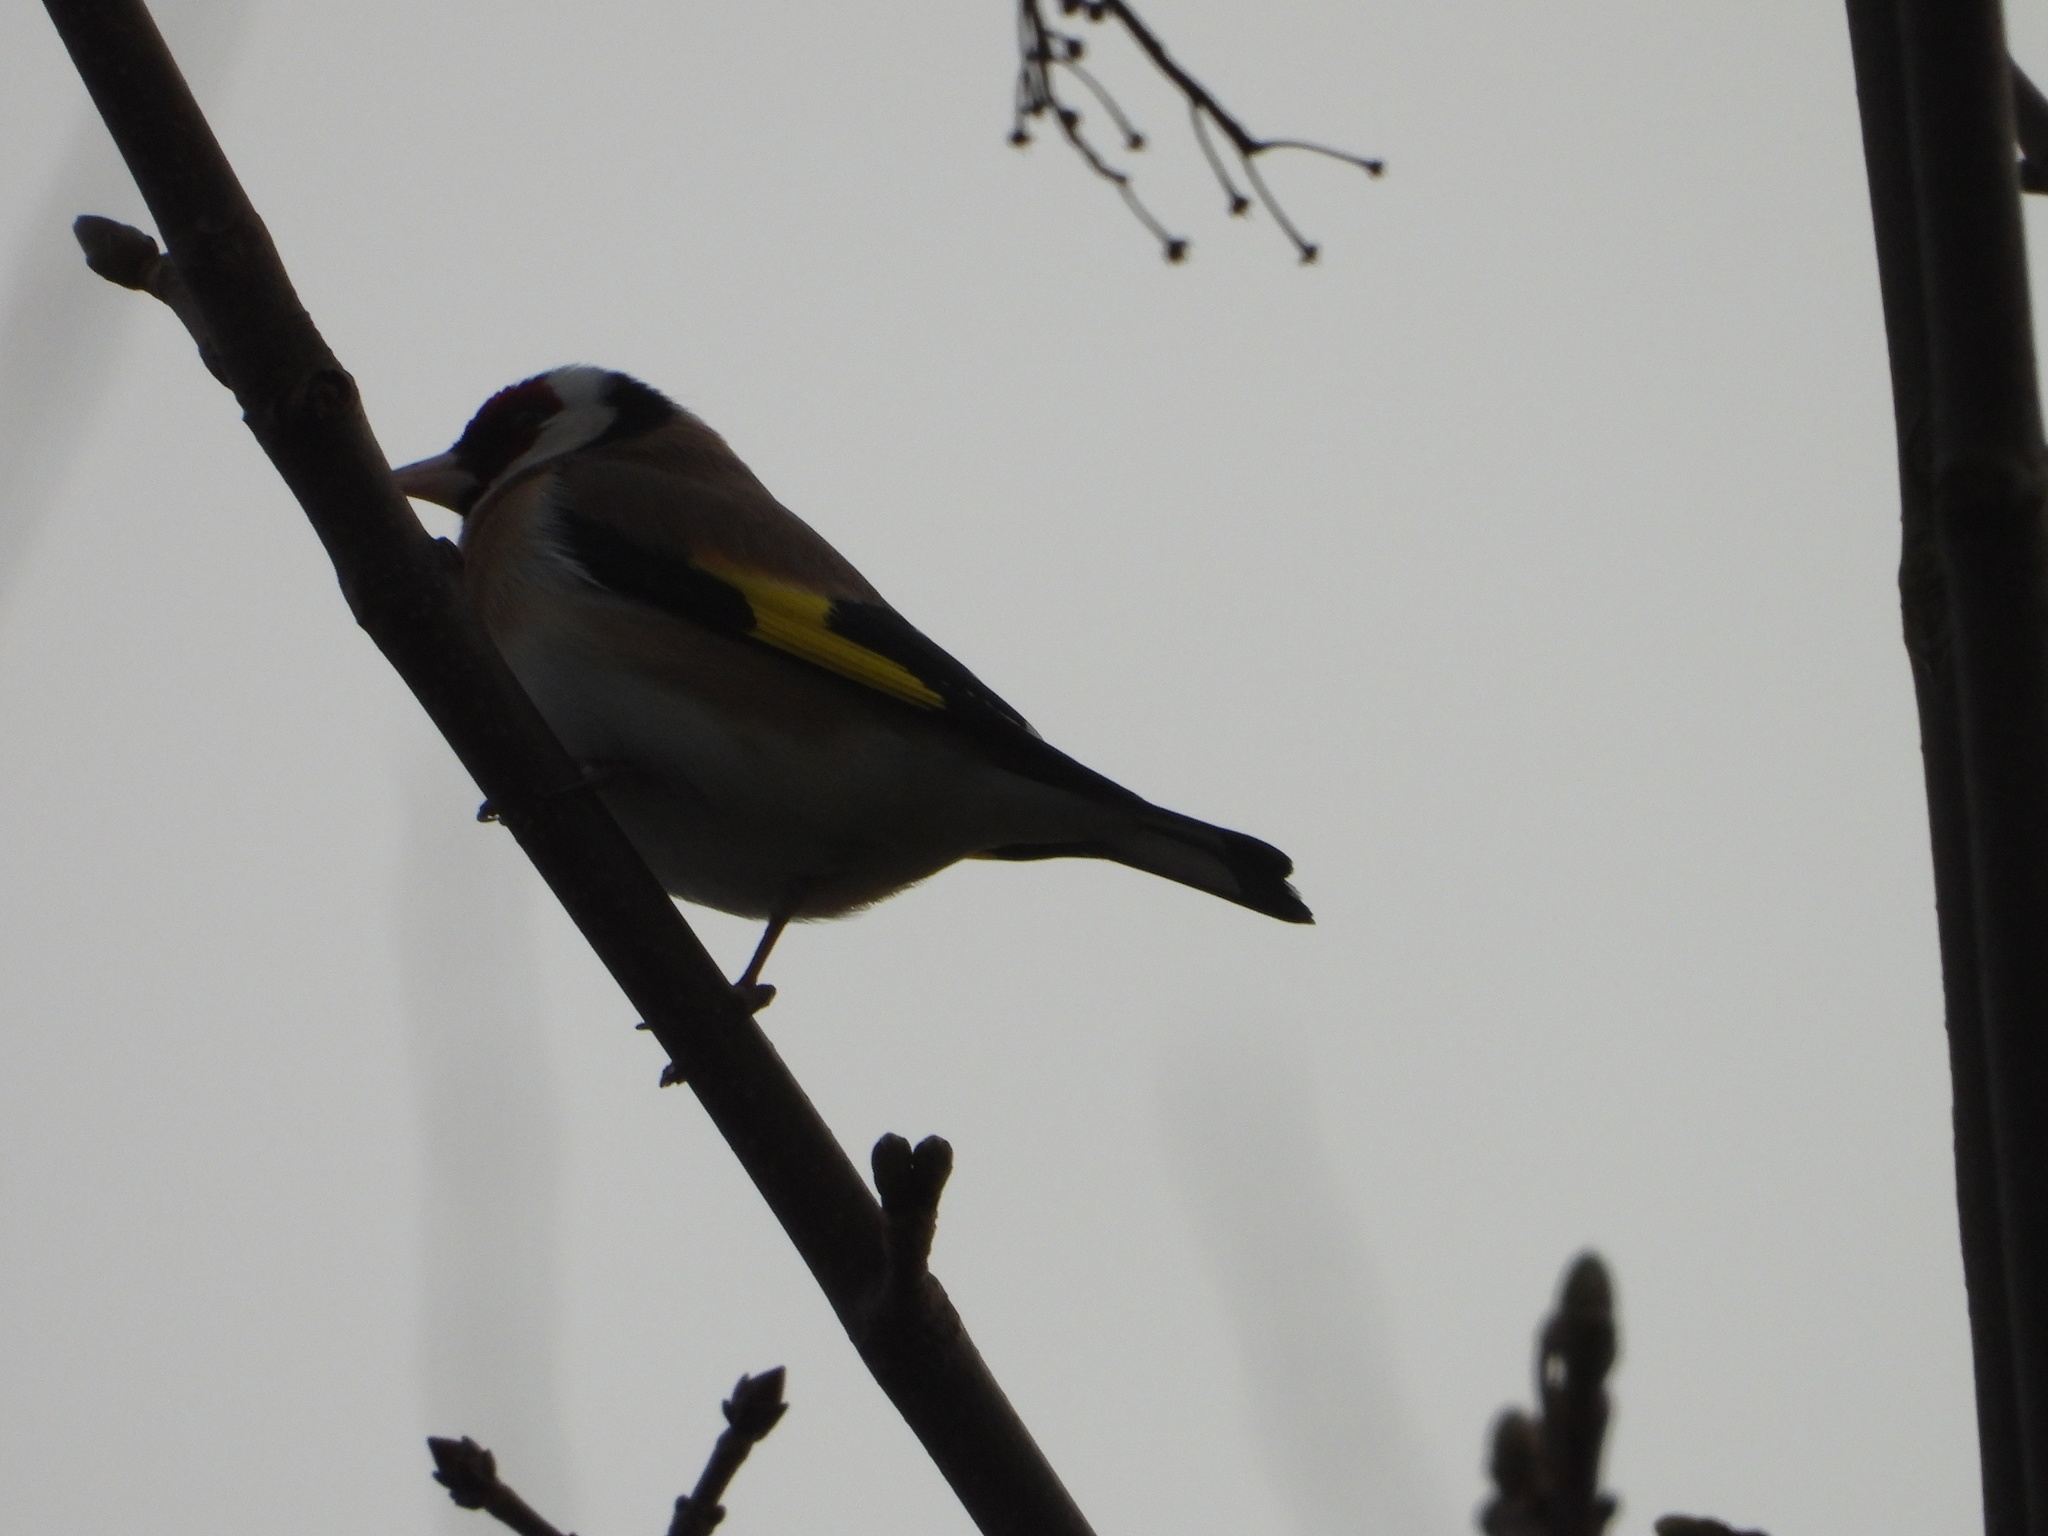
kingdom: Animalia
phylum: Chordata
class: Aves
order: Passeriformes
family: Fringillidae
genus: Carduelis
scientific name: Carduelis carduelis
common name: European goldfinch
